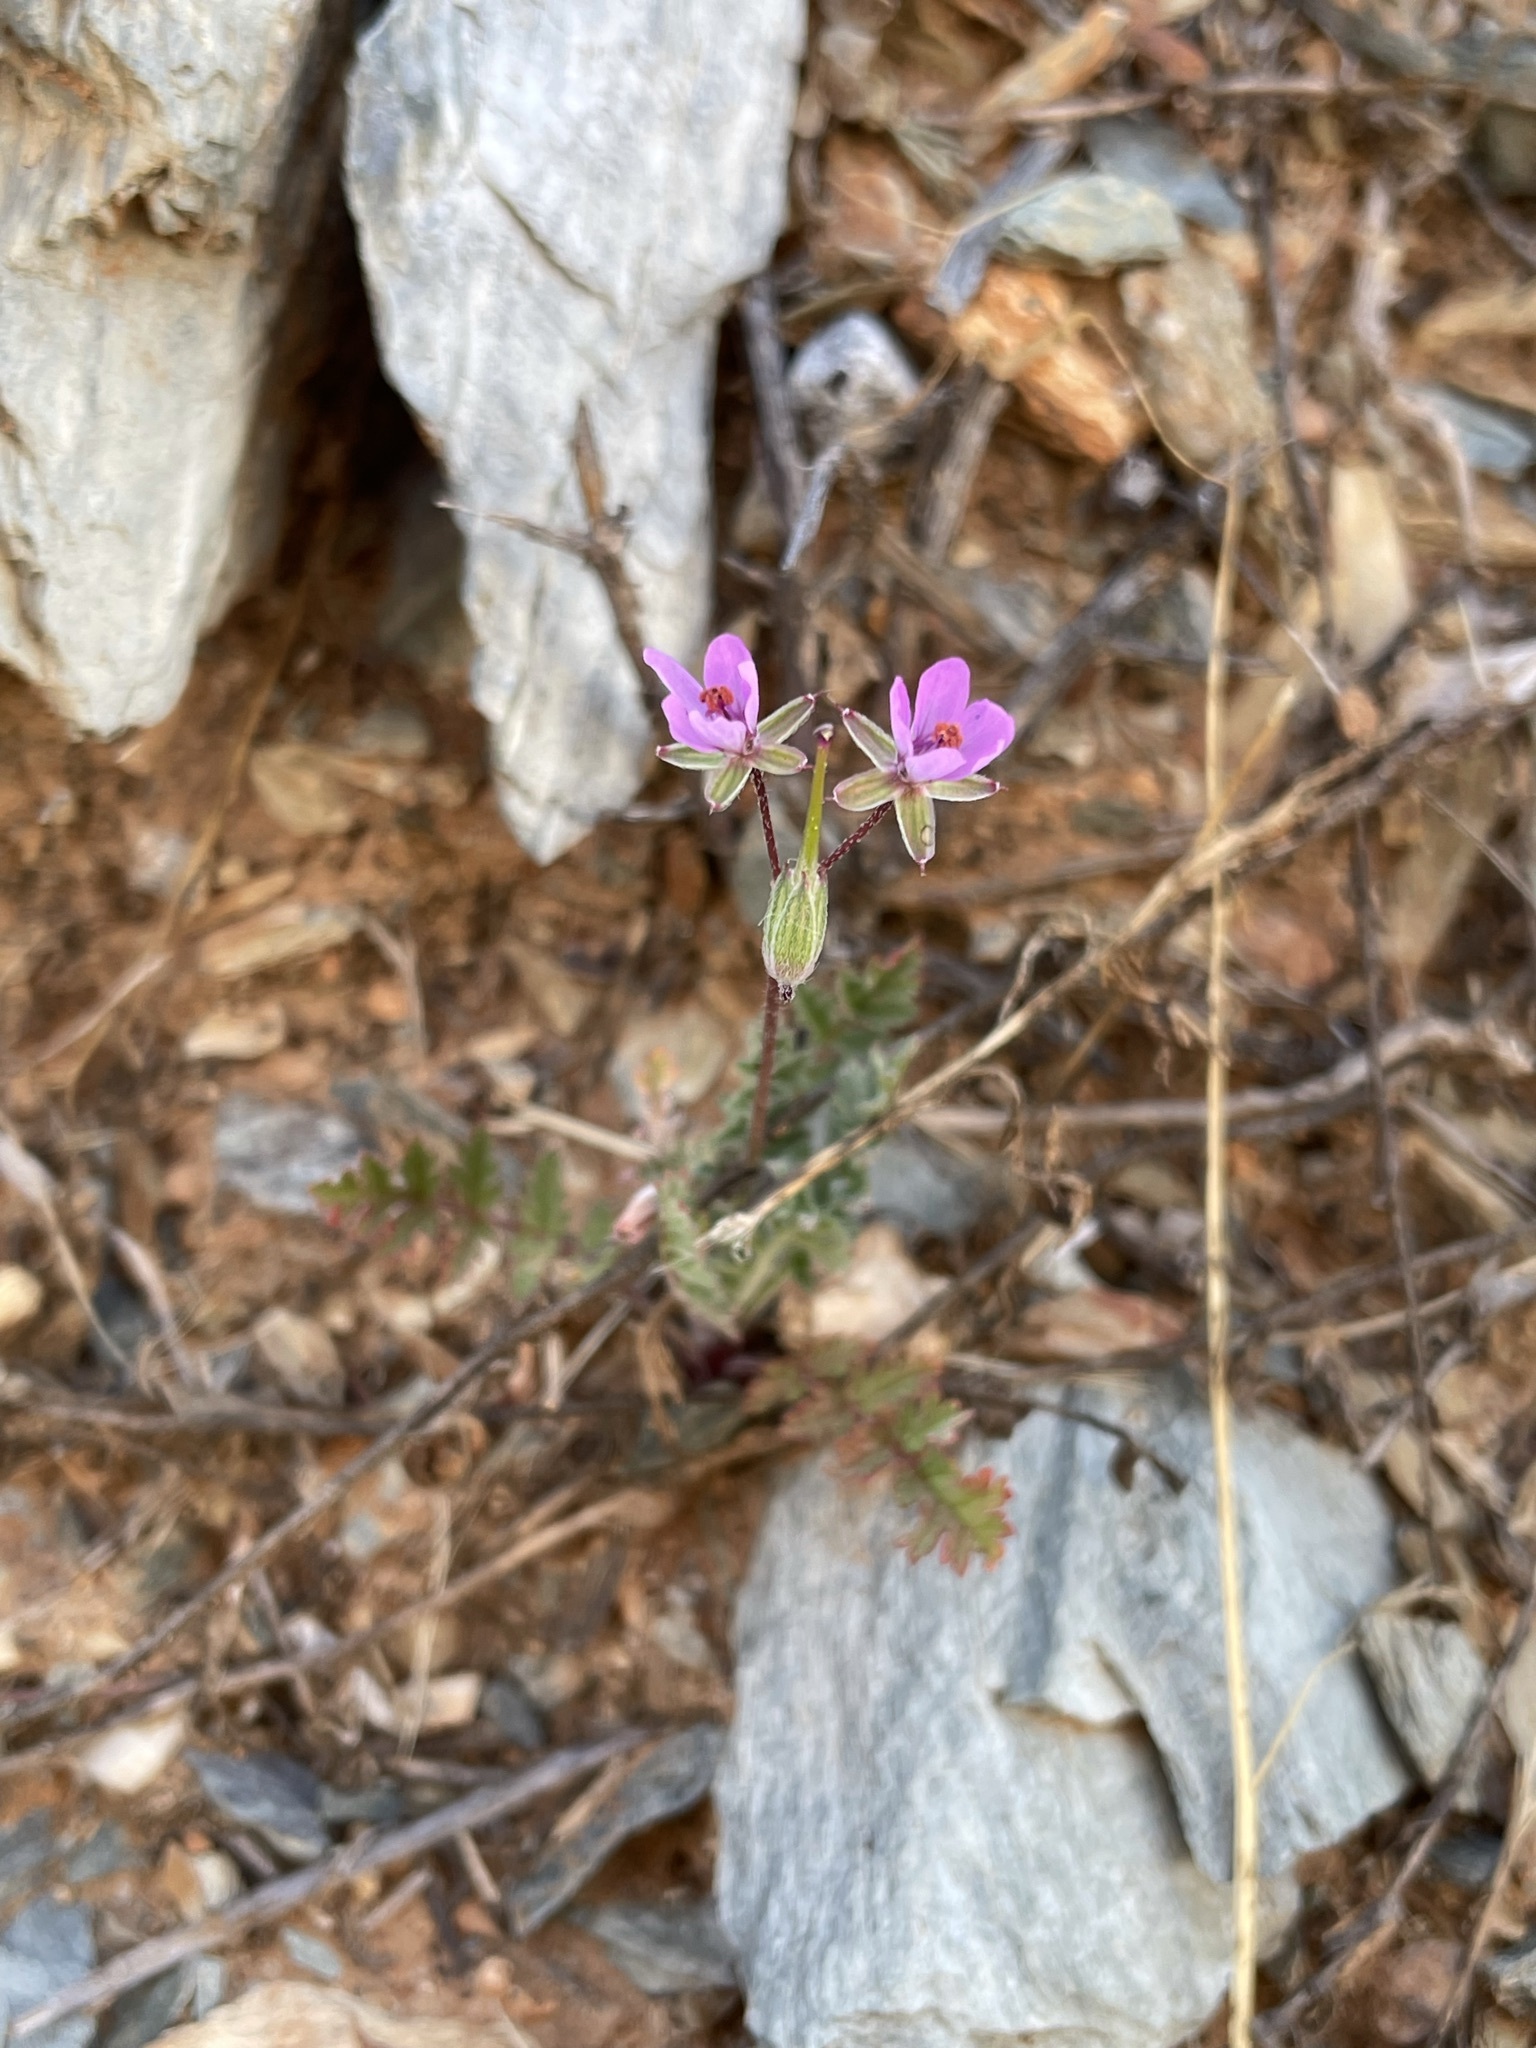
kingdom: Plantae
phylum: Tracheophyta
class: Magnoliopsida
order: Geraniales
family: Geraniaceae
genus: Erodium
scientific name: Erodium cicutarium
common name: Common stork's-bill
